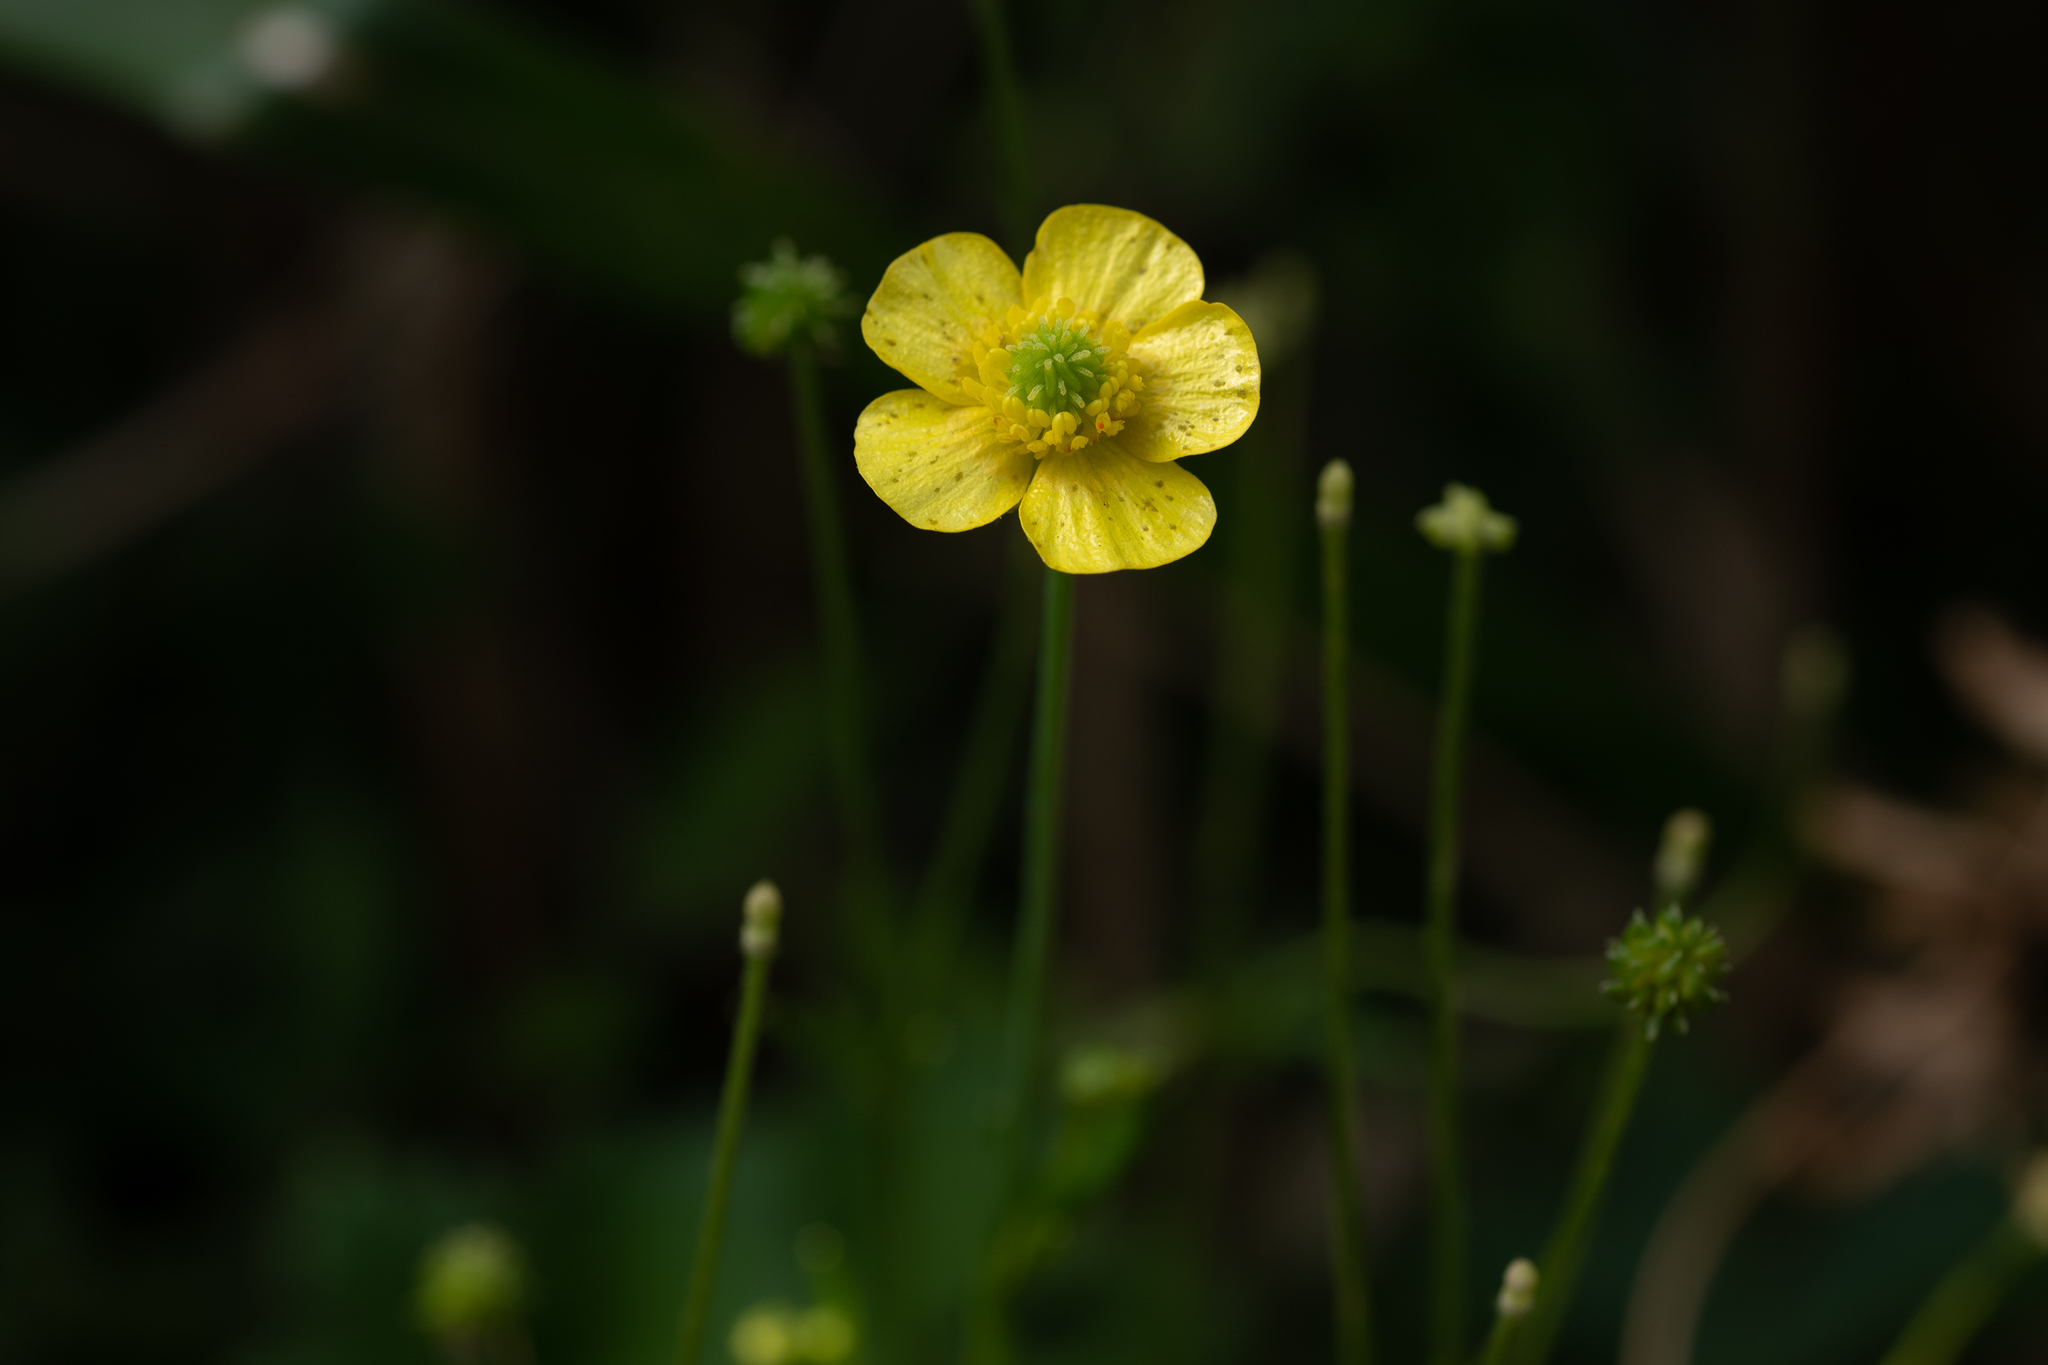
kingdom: Plantae
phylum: Tracheophyta
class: Magnoliopsida
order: Ranunculales
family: Ranunculaceae
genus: Ranunculus
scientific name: Ranunculus japonicus
